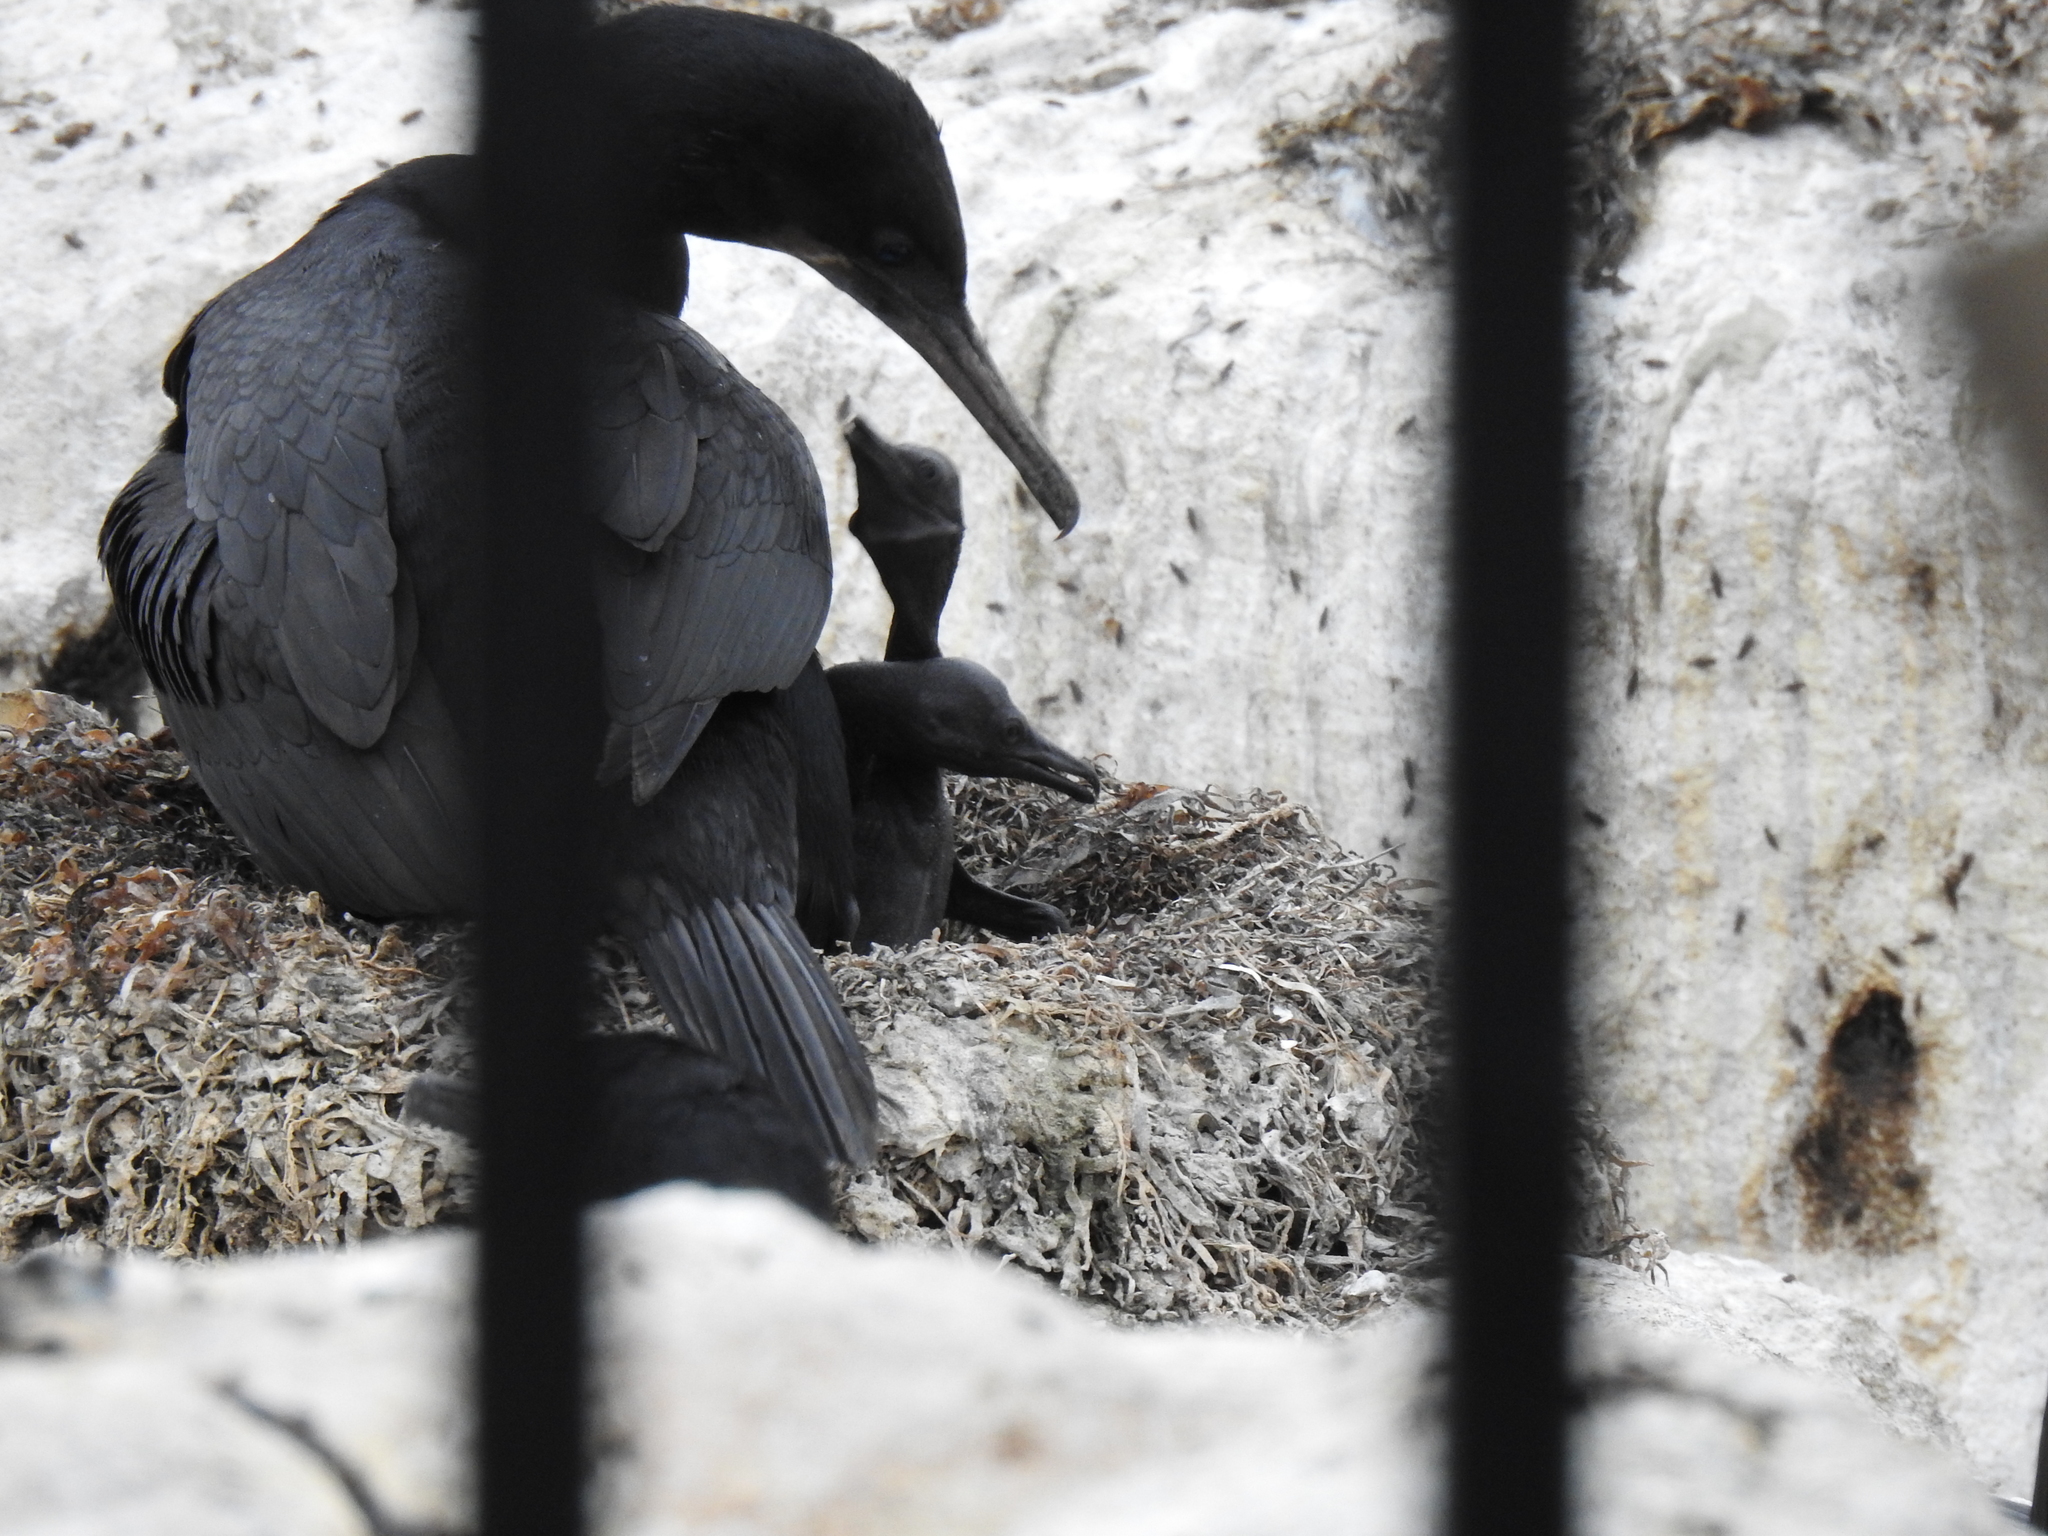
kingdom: Animalia
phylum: Chordata
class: Aves
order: Suliformes
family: Phalacrocoracidae
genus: Urile
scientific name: Urile penicillatus
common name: Brandt's cormorant
